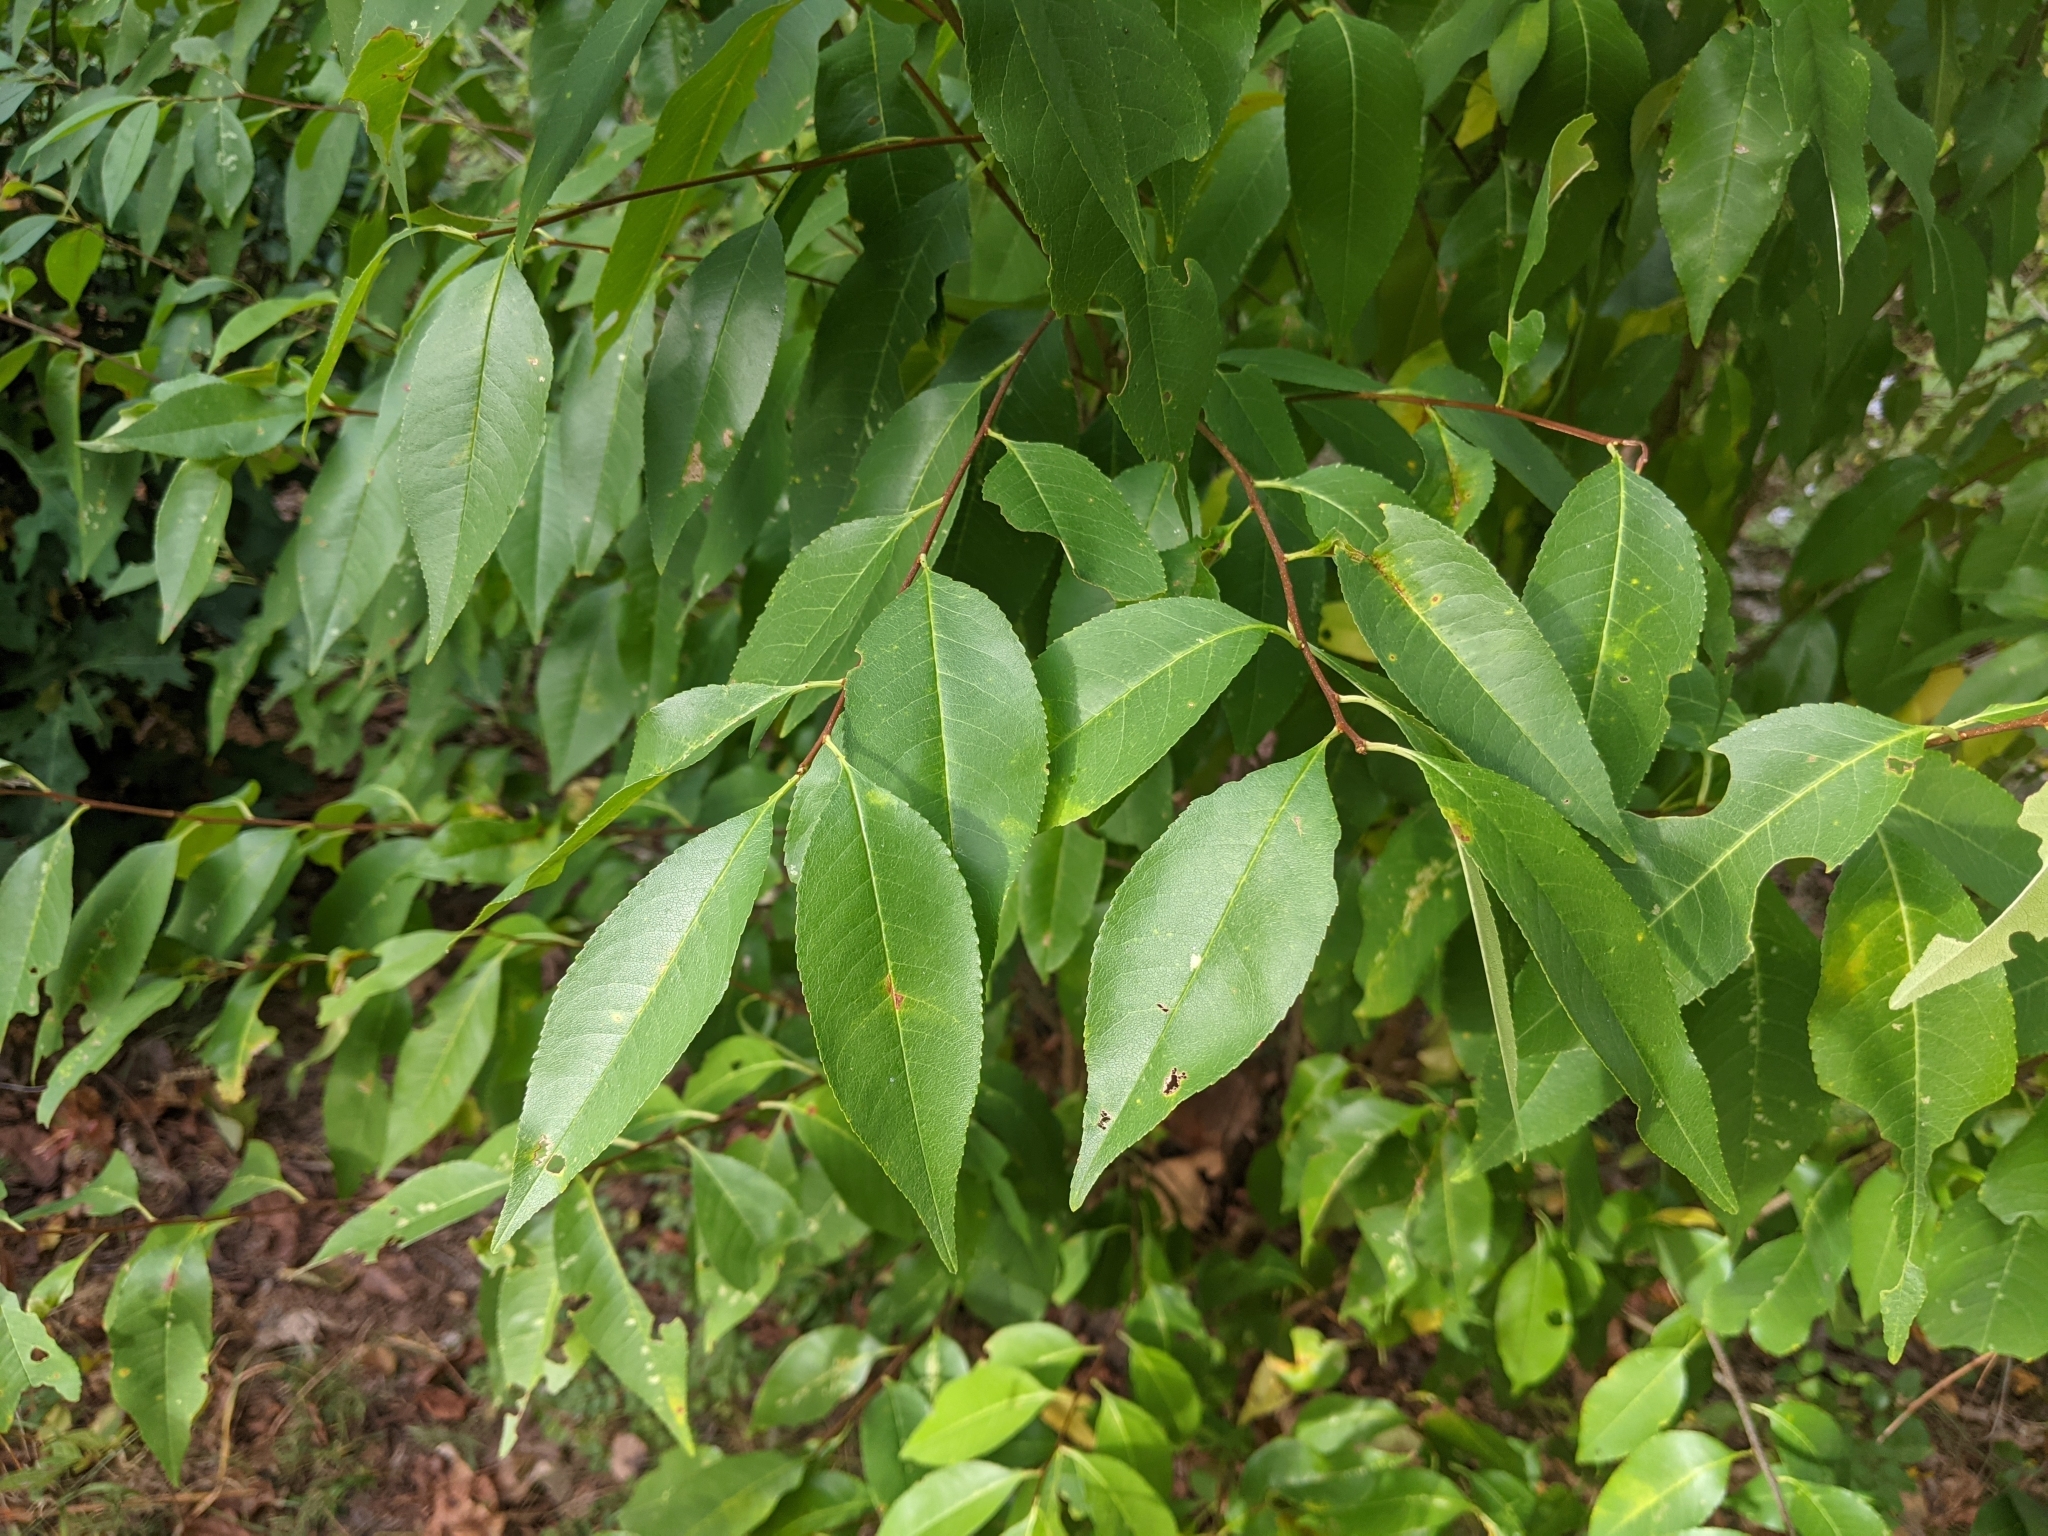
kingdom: Plantae
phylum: Tracheophyta
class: Magnoliopsida
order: Rosales
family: Rosaceae
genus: Prunus
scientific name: Prunus serotina
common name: Black cherry
